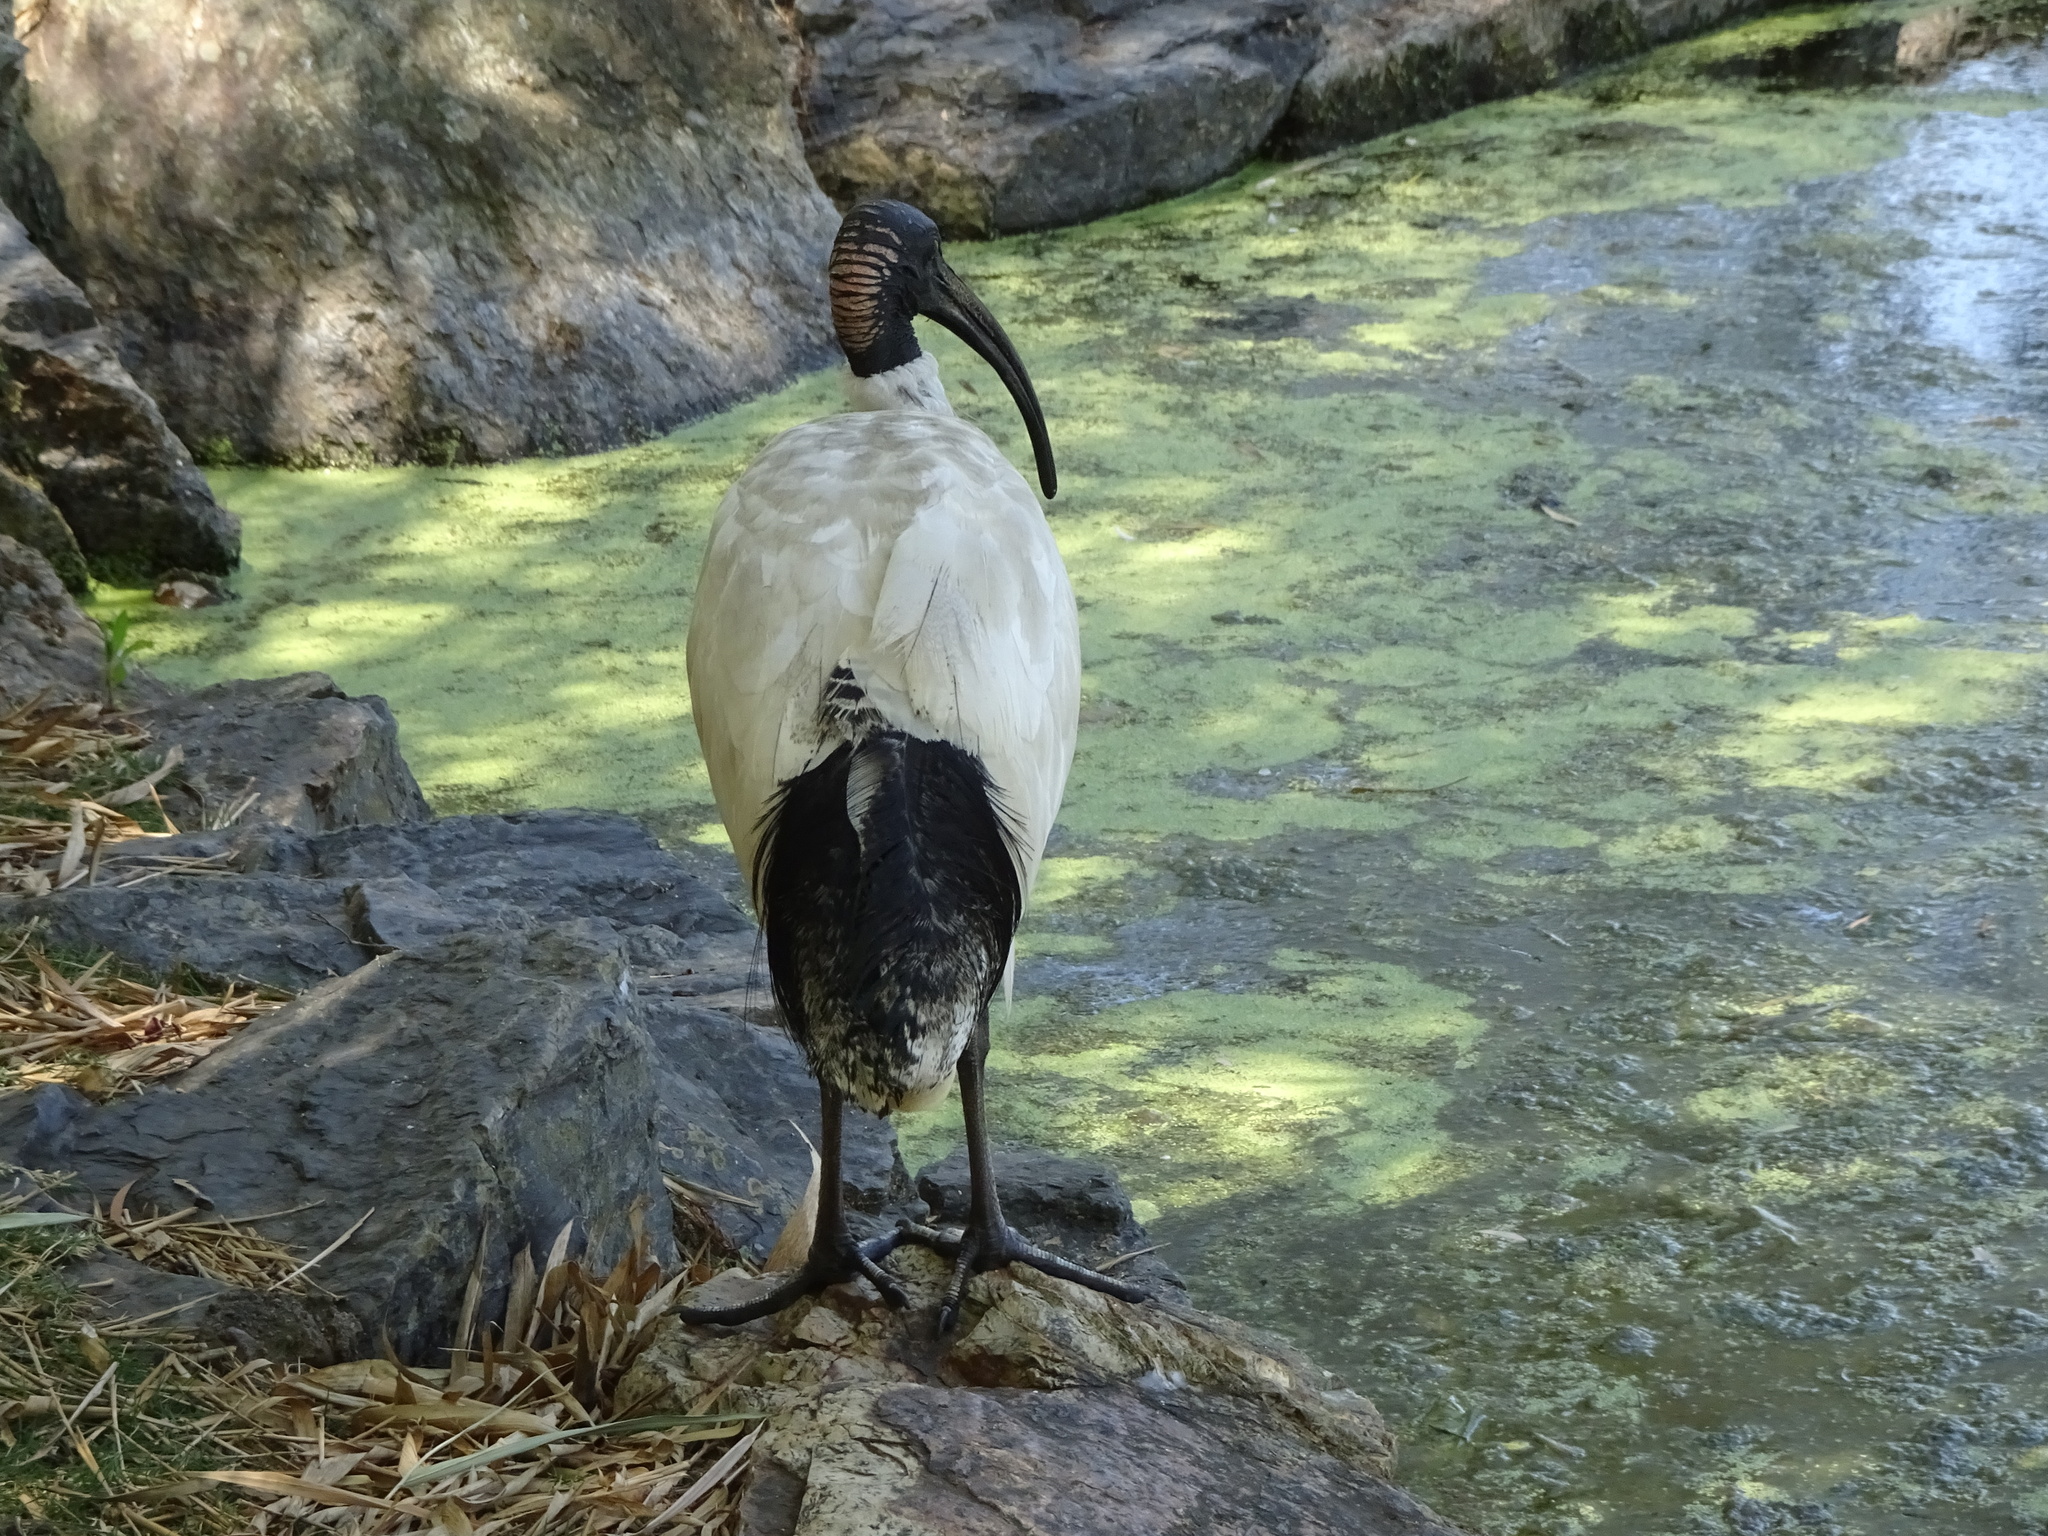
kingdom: Animalia
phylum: Chordata
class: Aves
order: Pelecaniformes
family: Threskiornithidae
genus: Threskiornis
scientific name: Threskiornis molucca
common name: Australian white ibis
